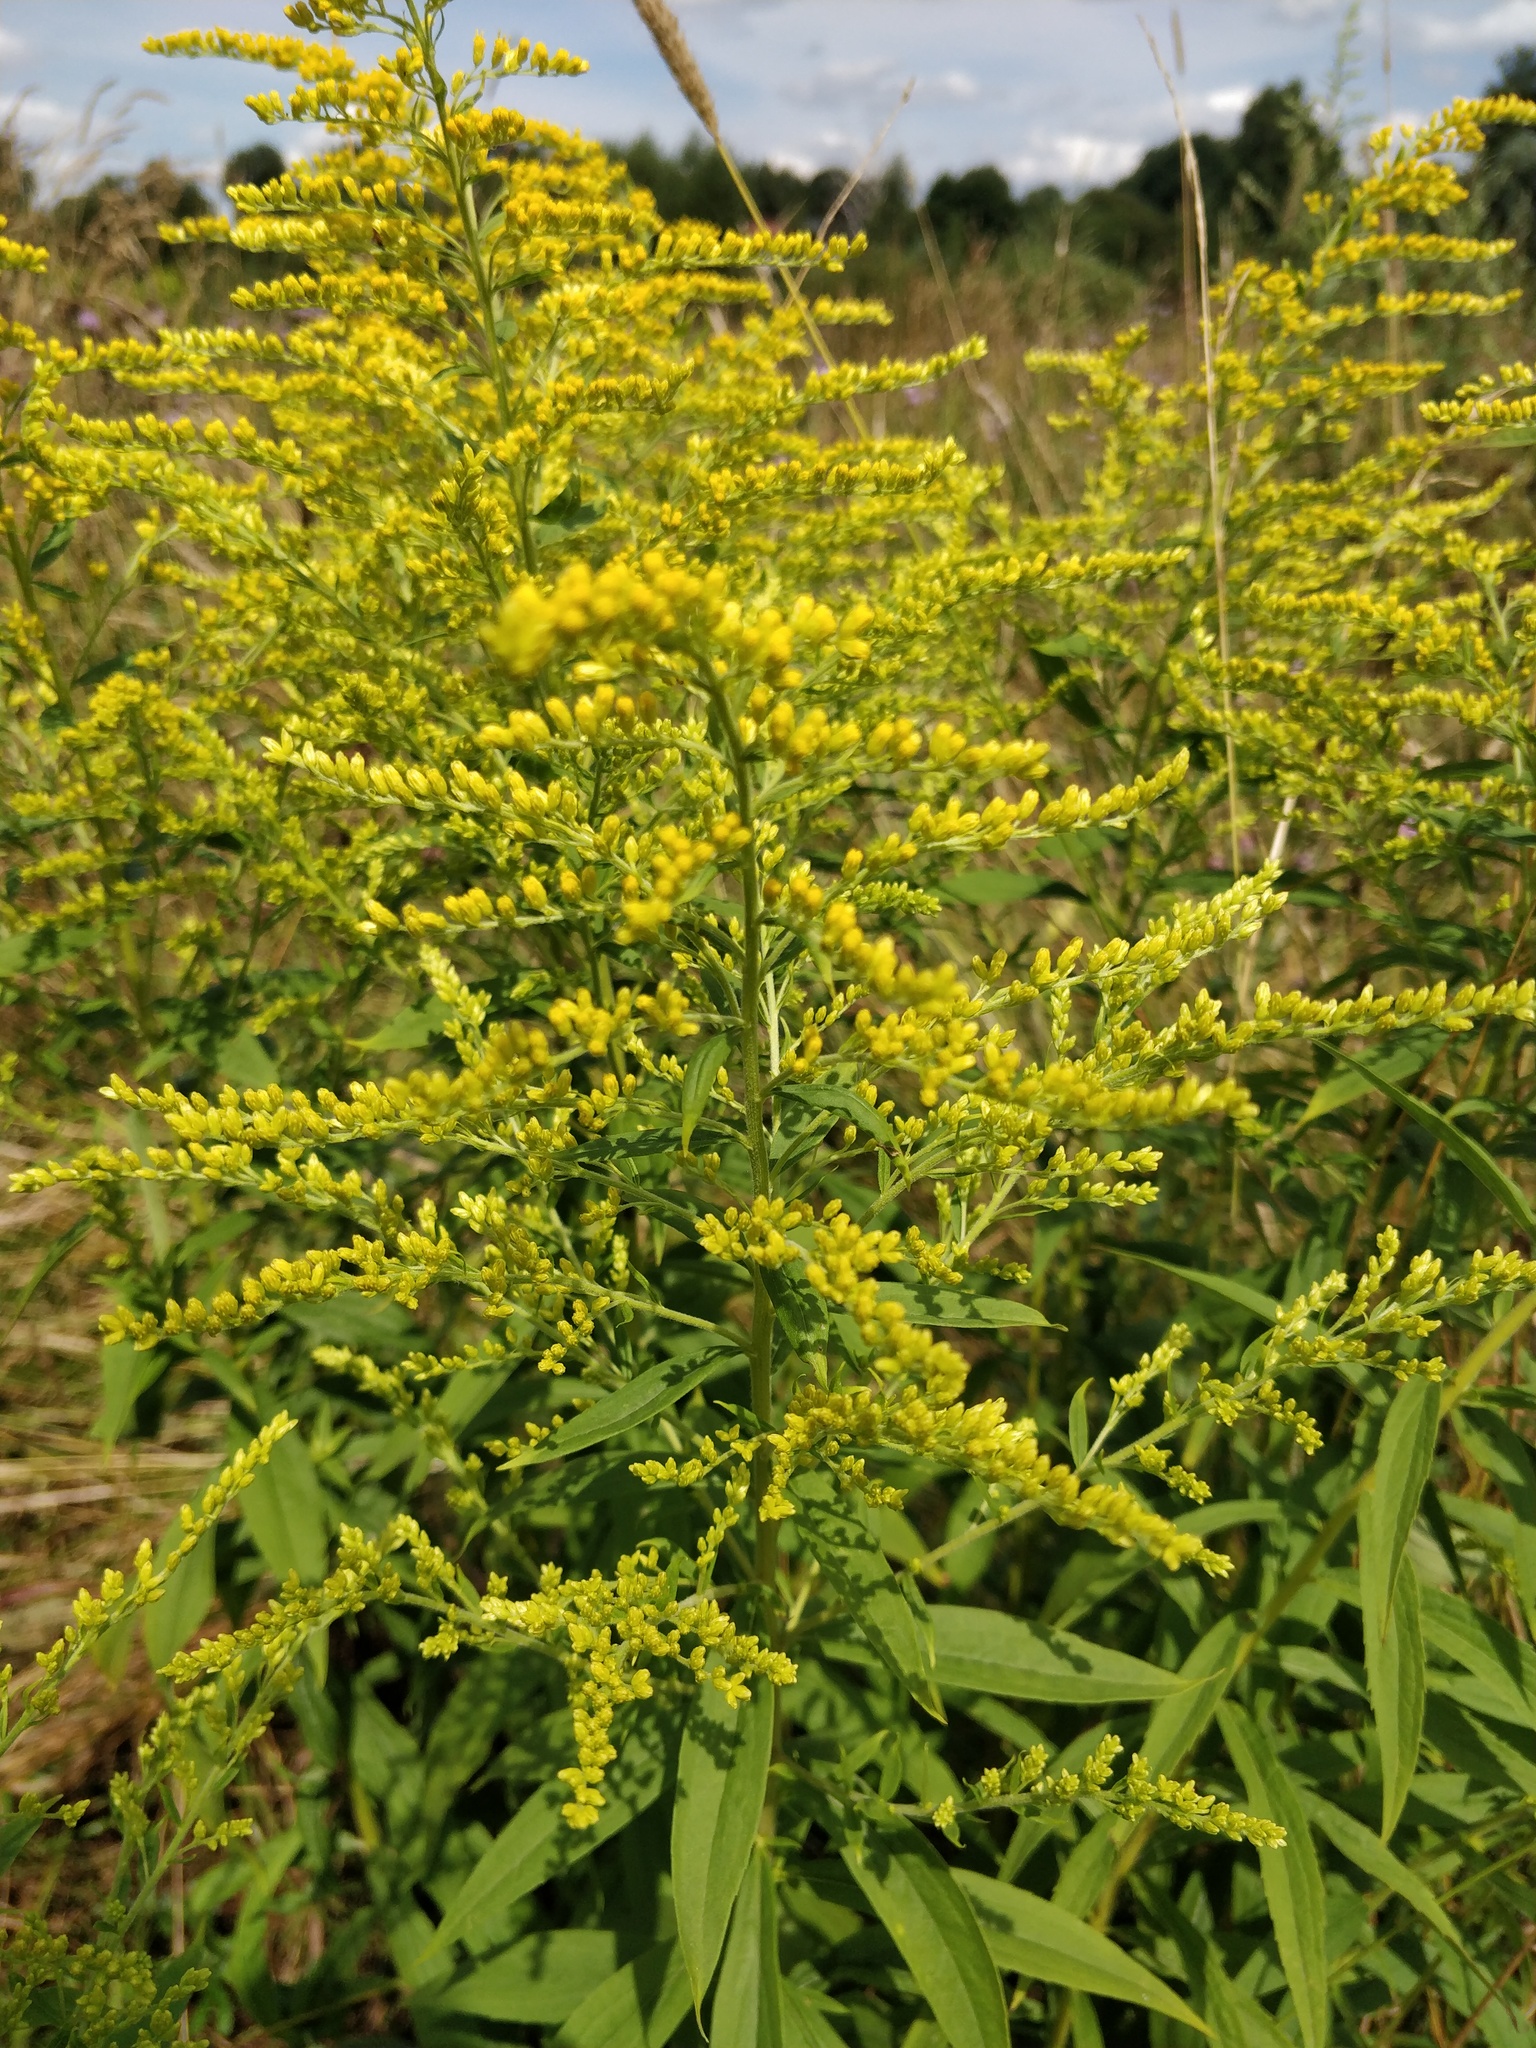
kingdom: Plantae
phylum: Tracheophyta
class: Magnoliopsida
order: Asterales
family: Asteraceae
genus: Solidago
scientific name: Solidago canadensis
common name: Canada goldenrod
